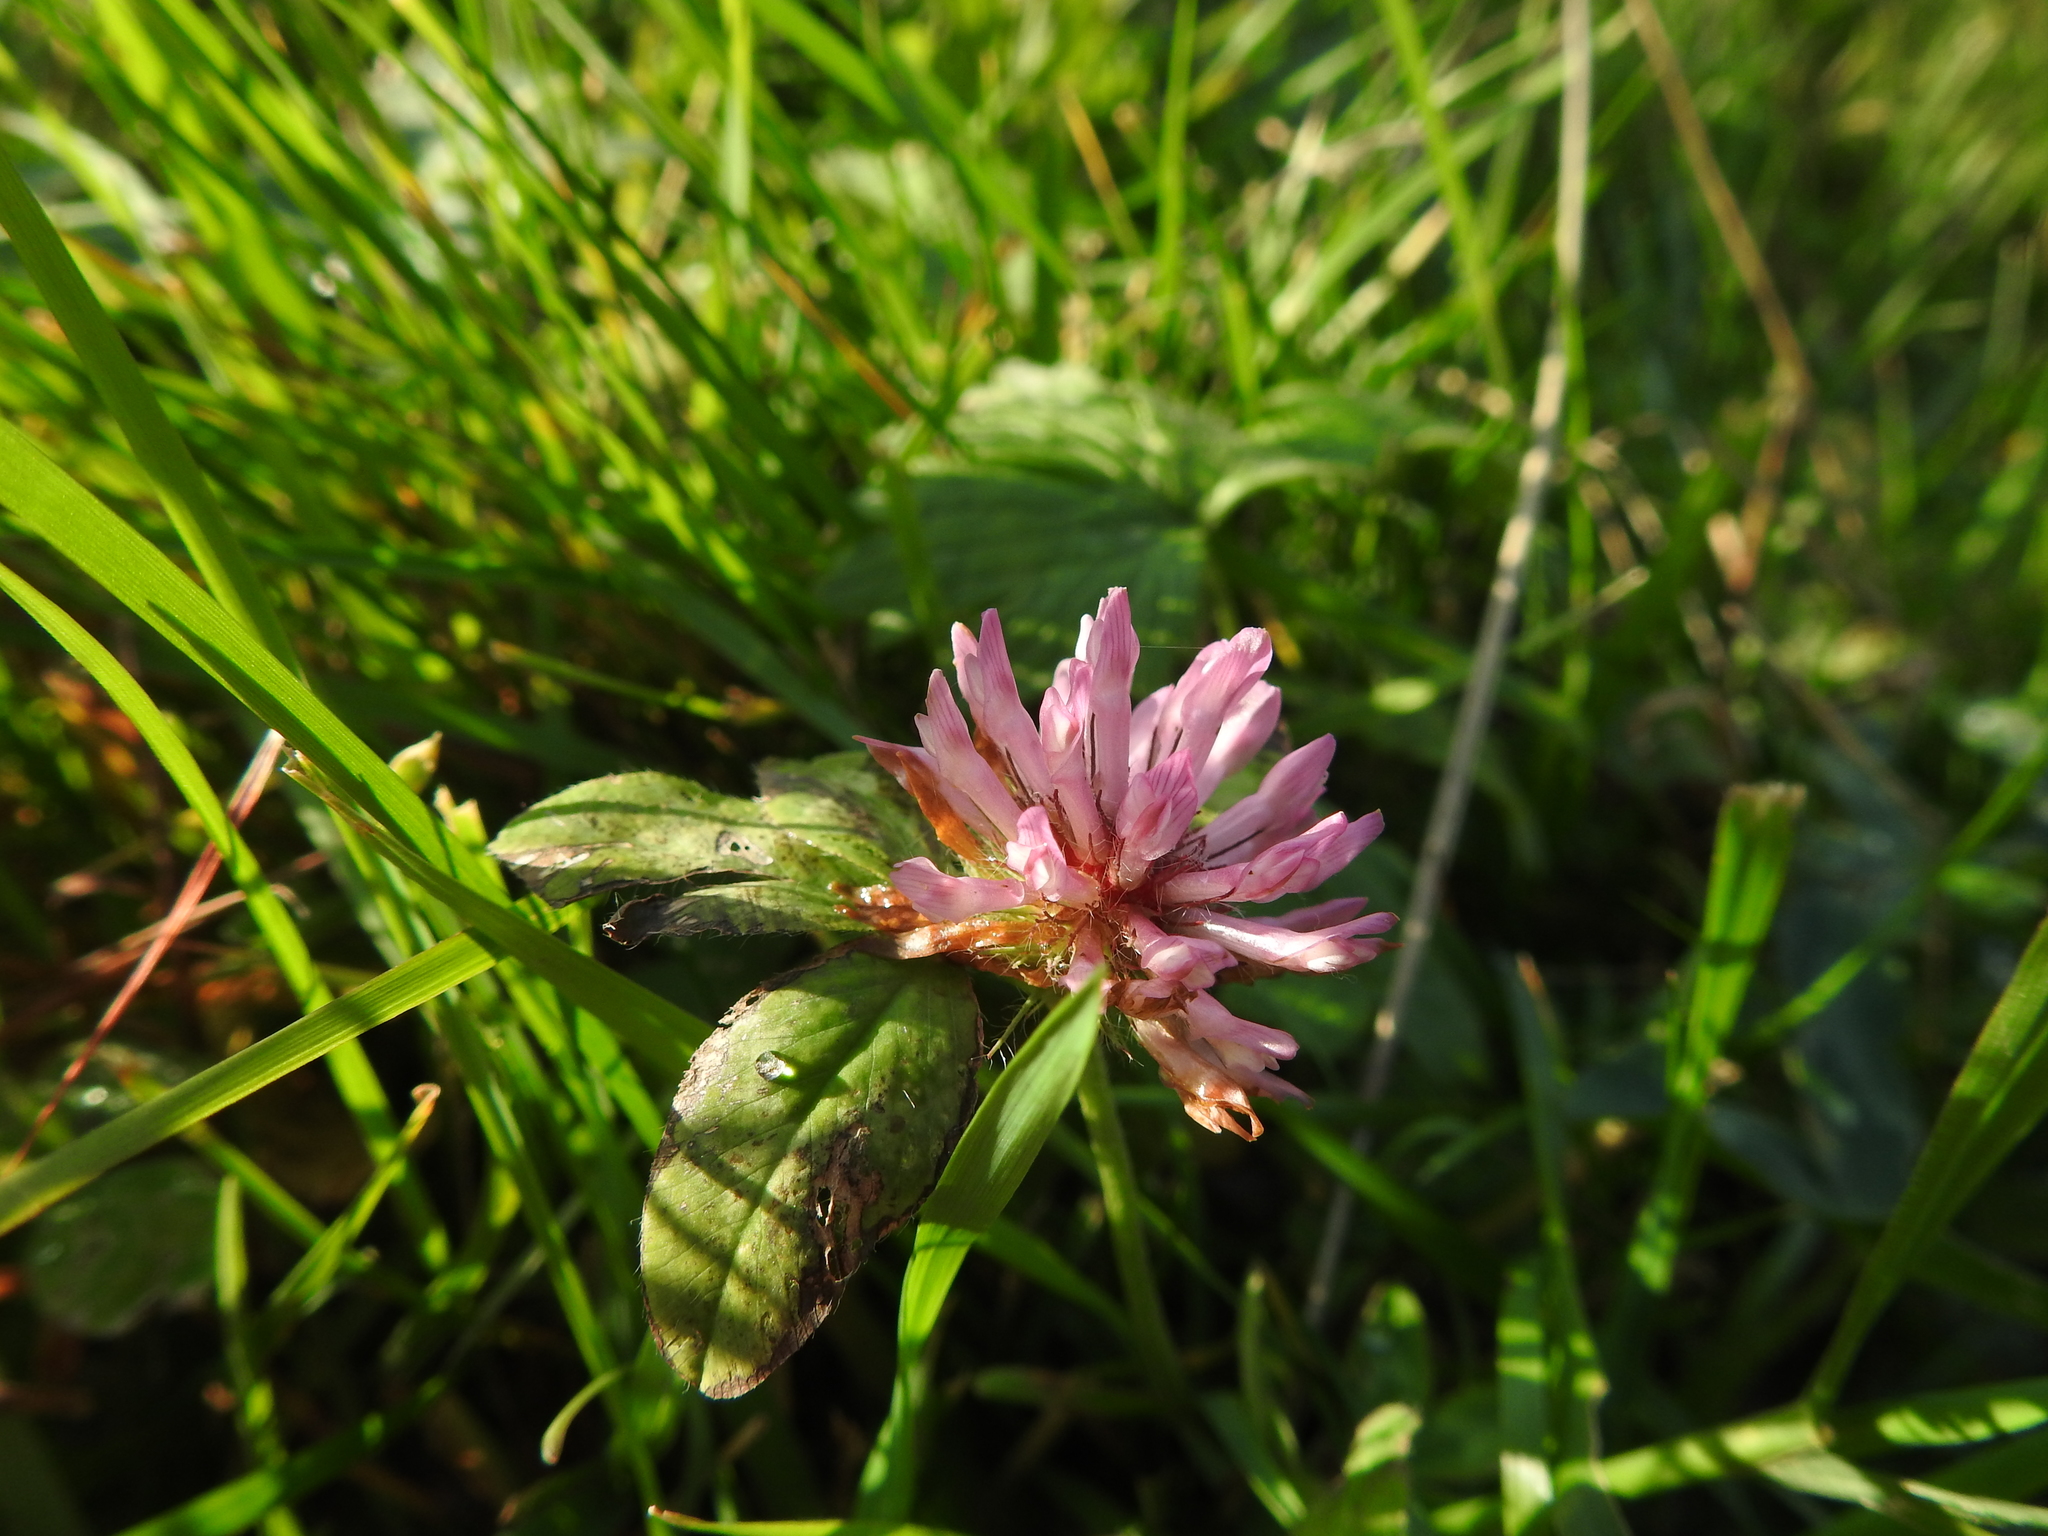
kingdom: Plantae
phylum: Tracheophyta
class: Magnoliopsida
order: Fabales
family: Fabaceae
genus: Trifolium
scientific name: Trifolium pratense
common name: Red clover
